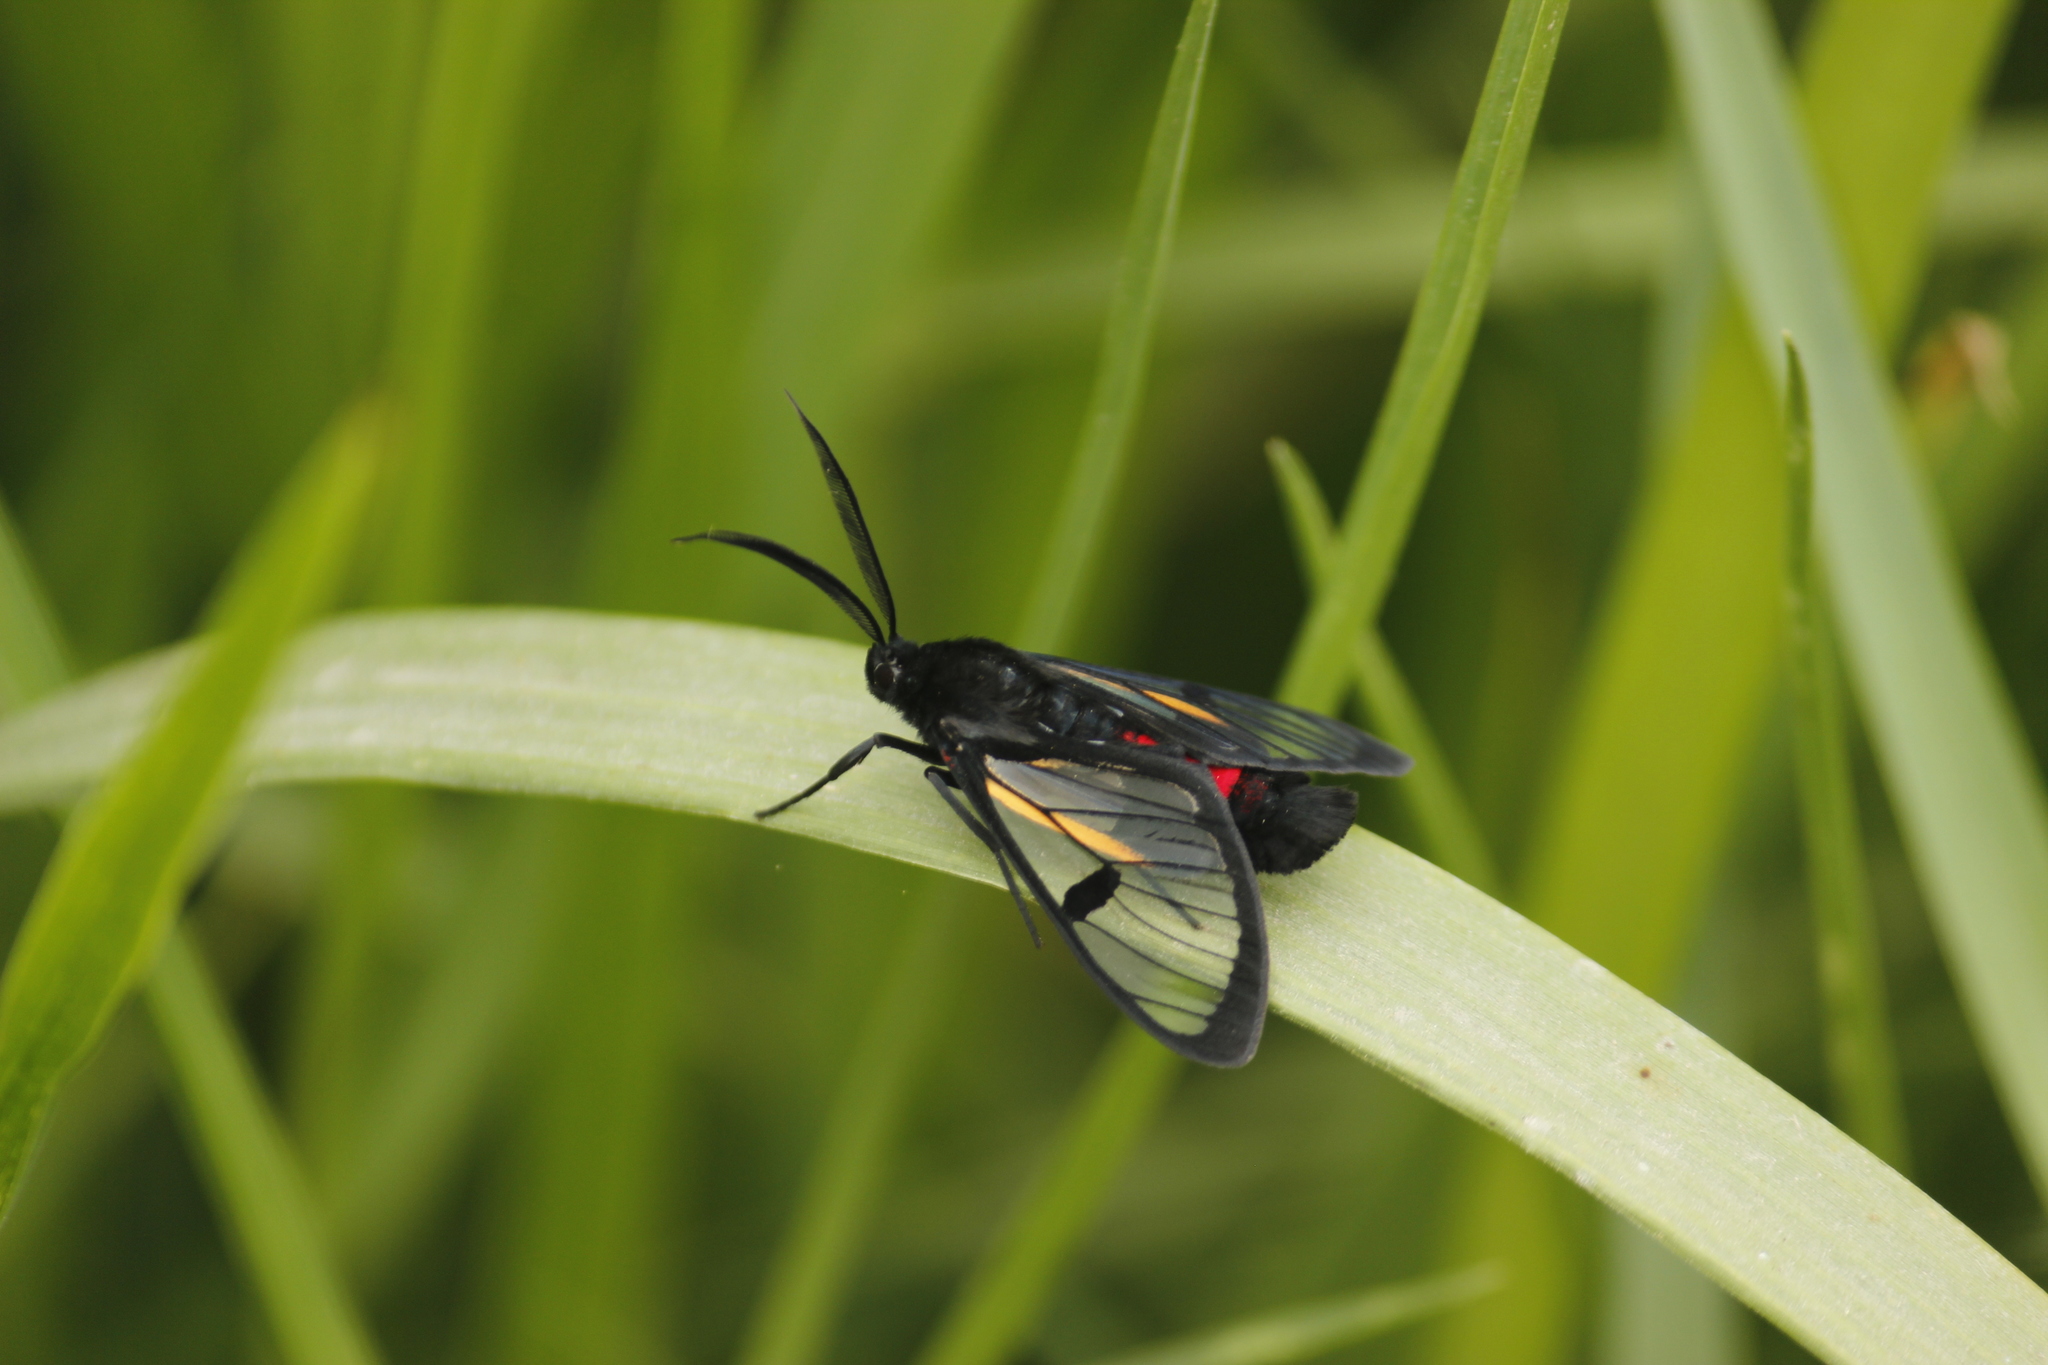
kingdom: Animalia
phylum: Arthropoda
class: Insecta
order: Lepidoptera
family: Erebidae
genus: Dinia
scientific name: Dinia subapicalis
